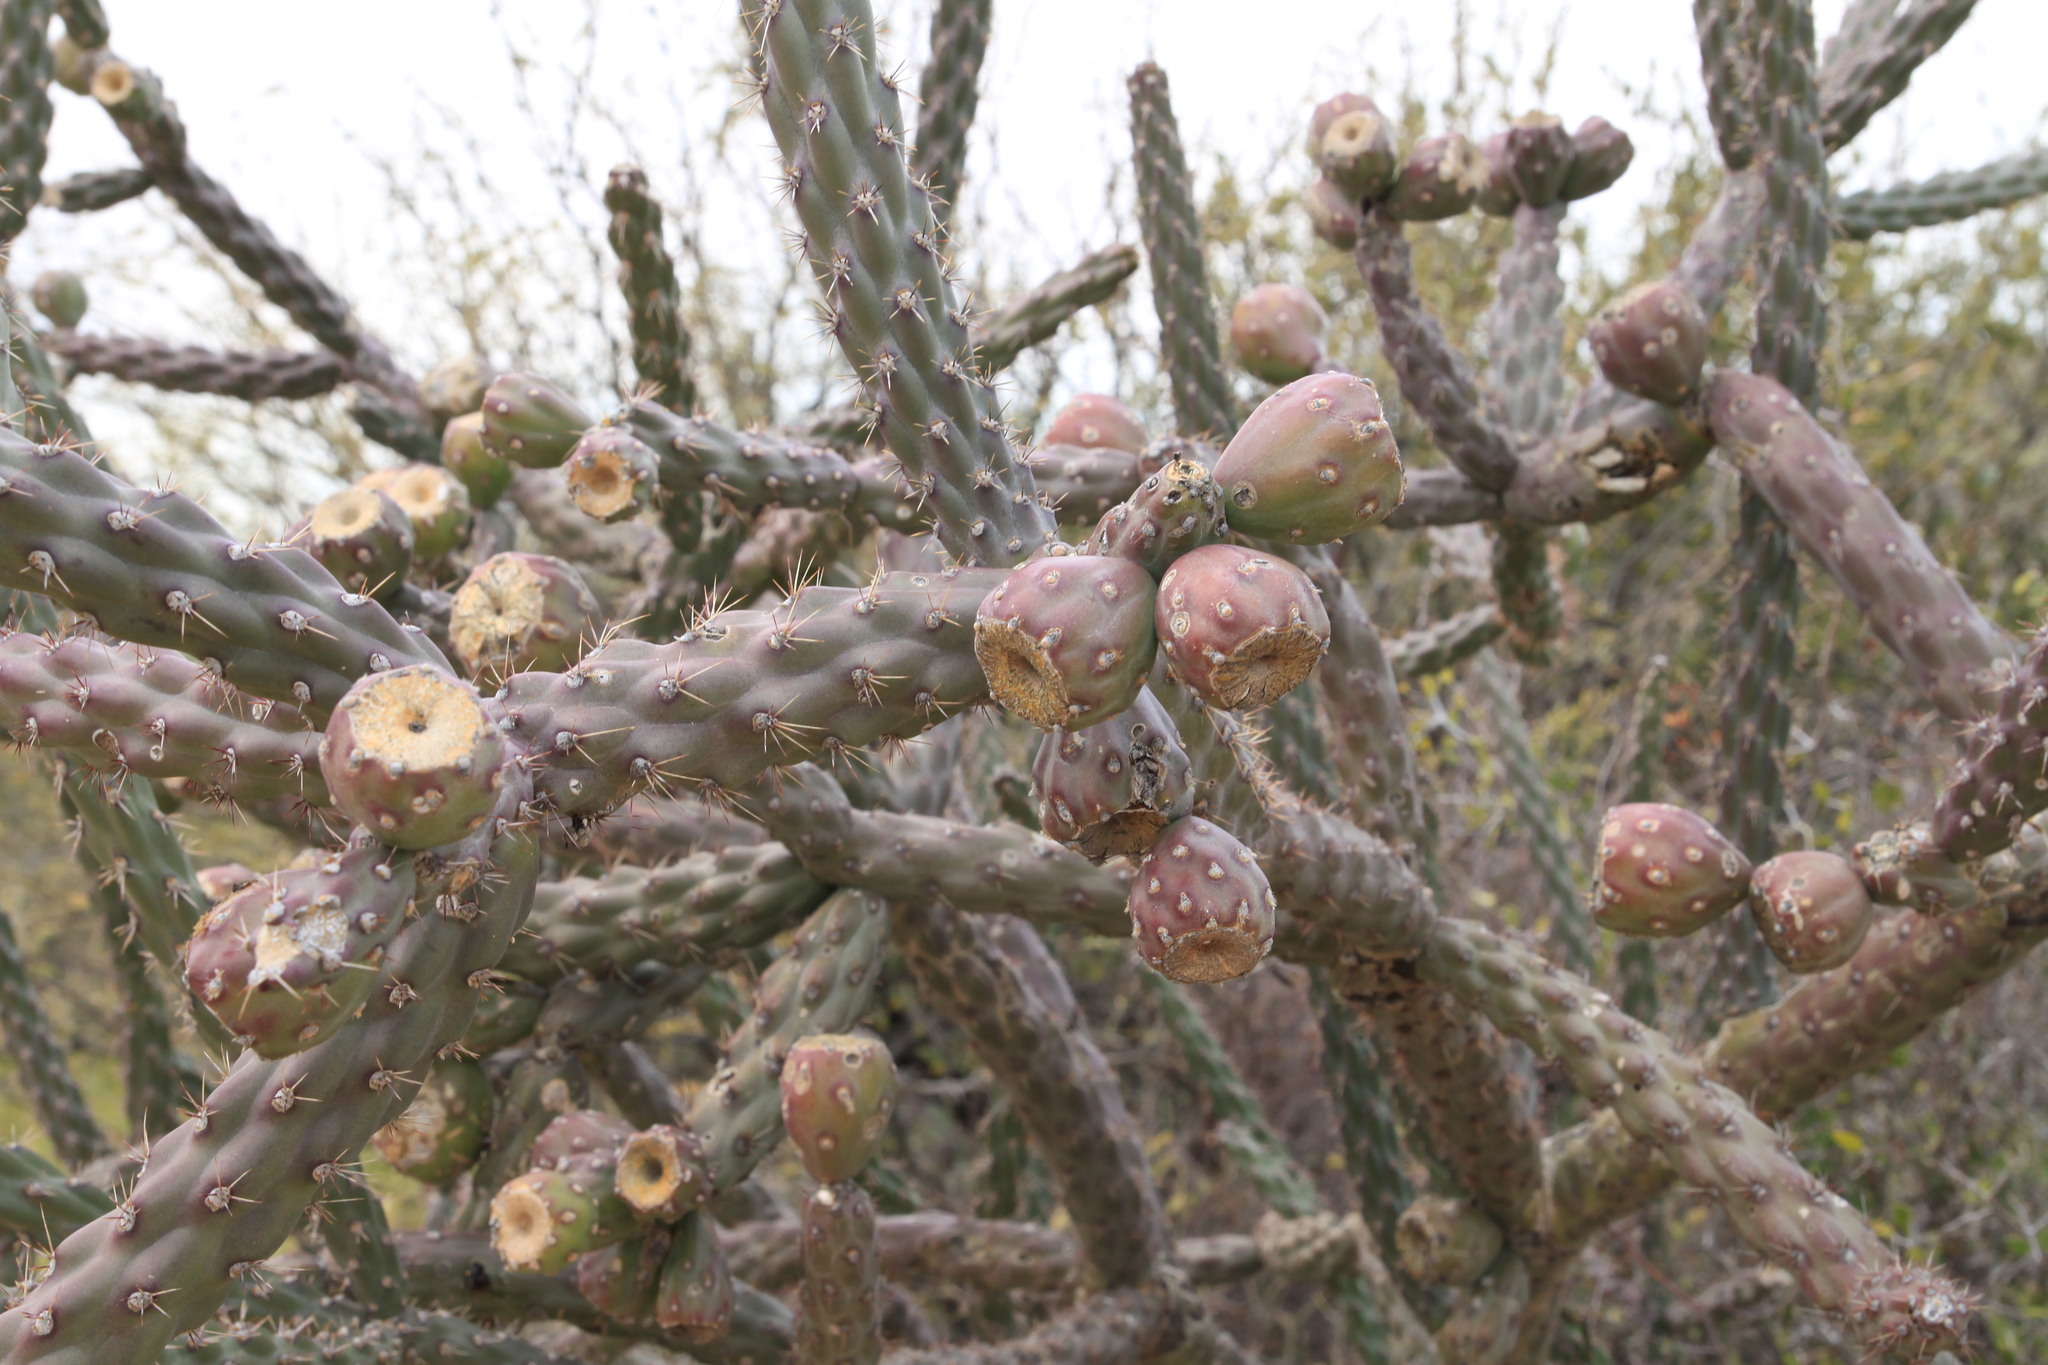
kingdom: Plantae
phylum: Tracheophyta
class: Magnoliopsida
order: Caryophyllales
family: Cactaceae
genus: Cylindropuntia
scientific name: Cylindropuntia thurberi
